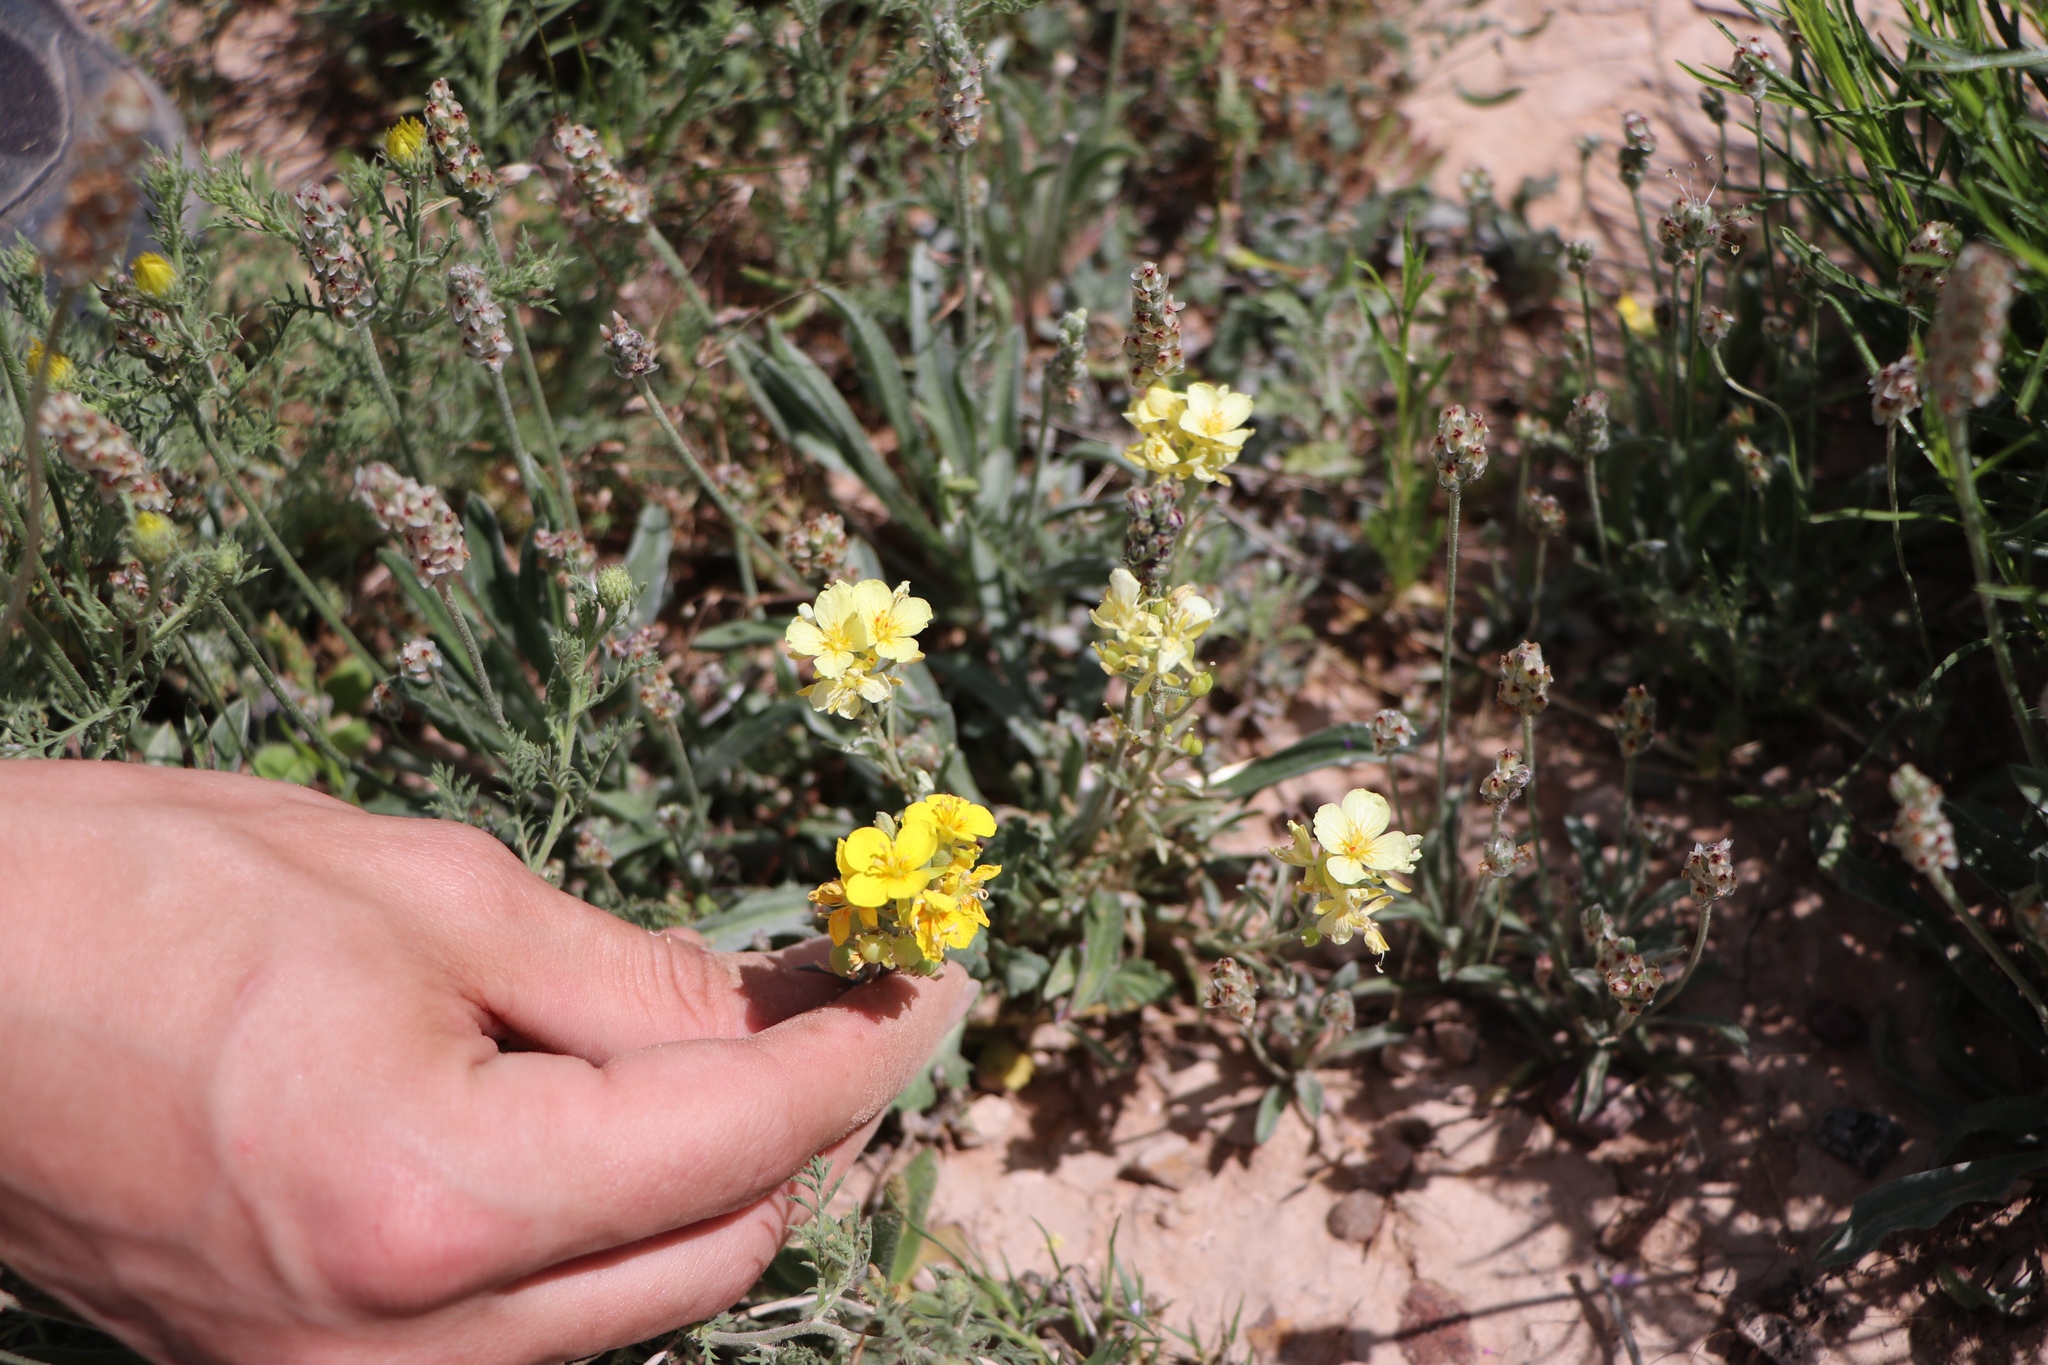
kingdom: Plantae
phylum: Tracheophyta
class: Magnoliopsida
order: Brassicales
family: Brassicaceae
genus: Physaria
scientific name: Physaria fendleri
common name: Fendler's bladderpod
